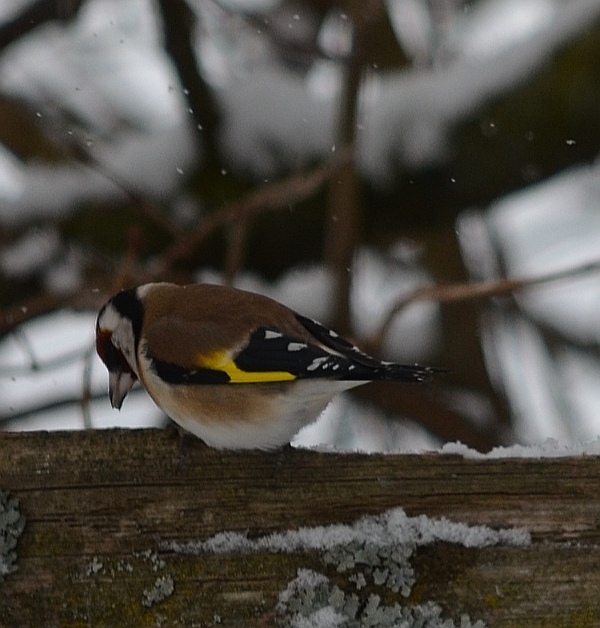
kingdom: Animalia
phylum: Chordata
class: Aves
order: Passeriformes
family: Fringillidae
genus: Carduelis
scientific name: Carduelis carduelis
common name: European goldfinch
